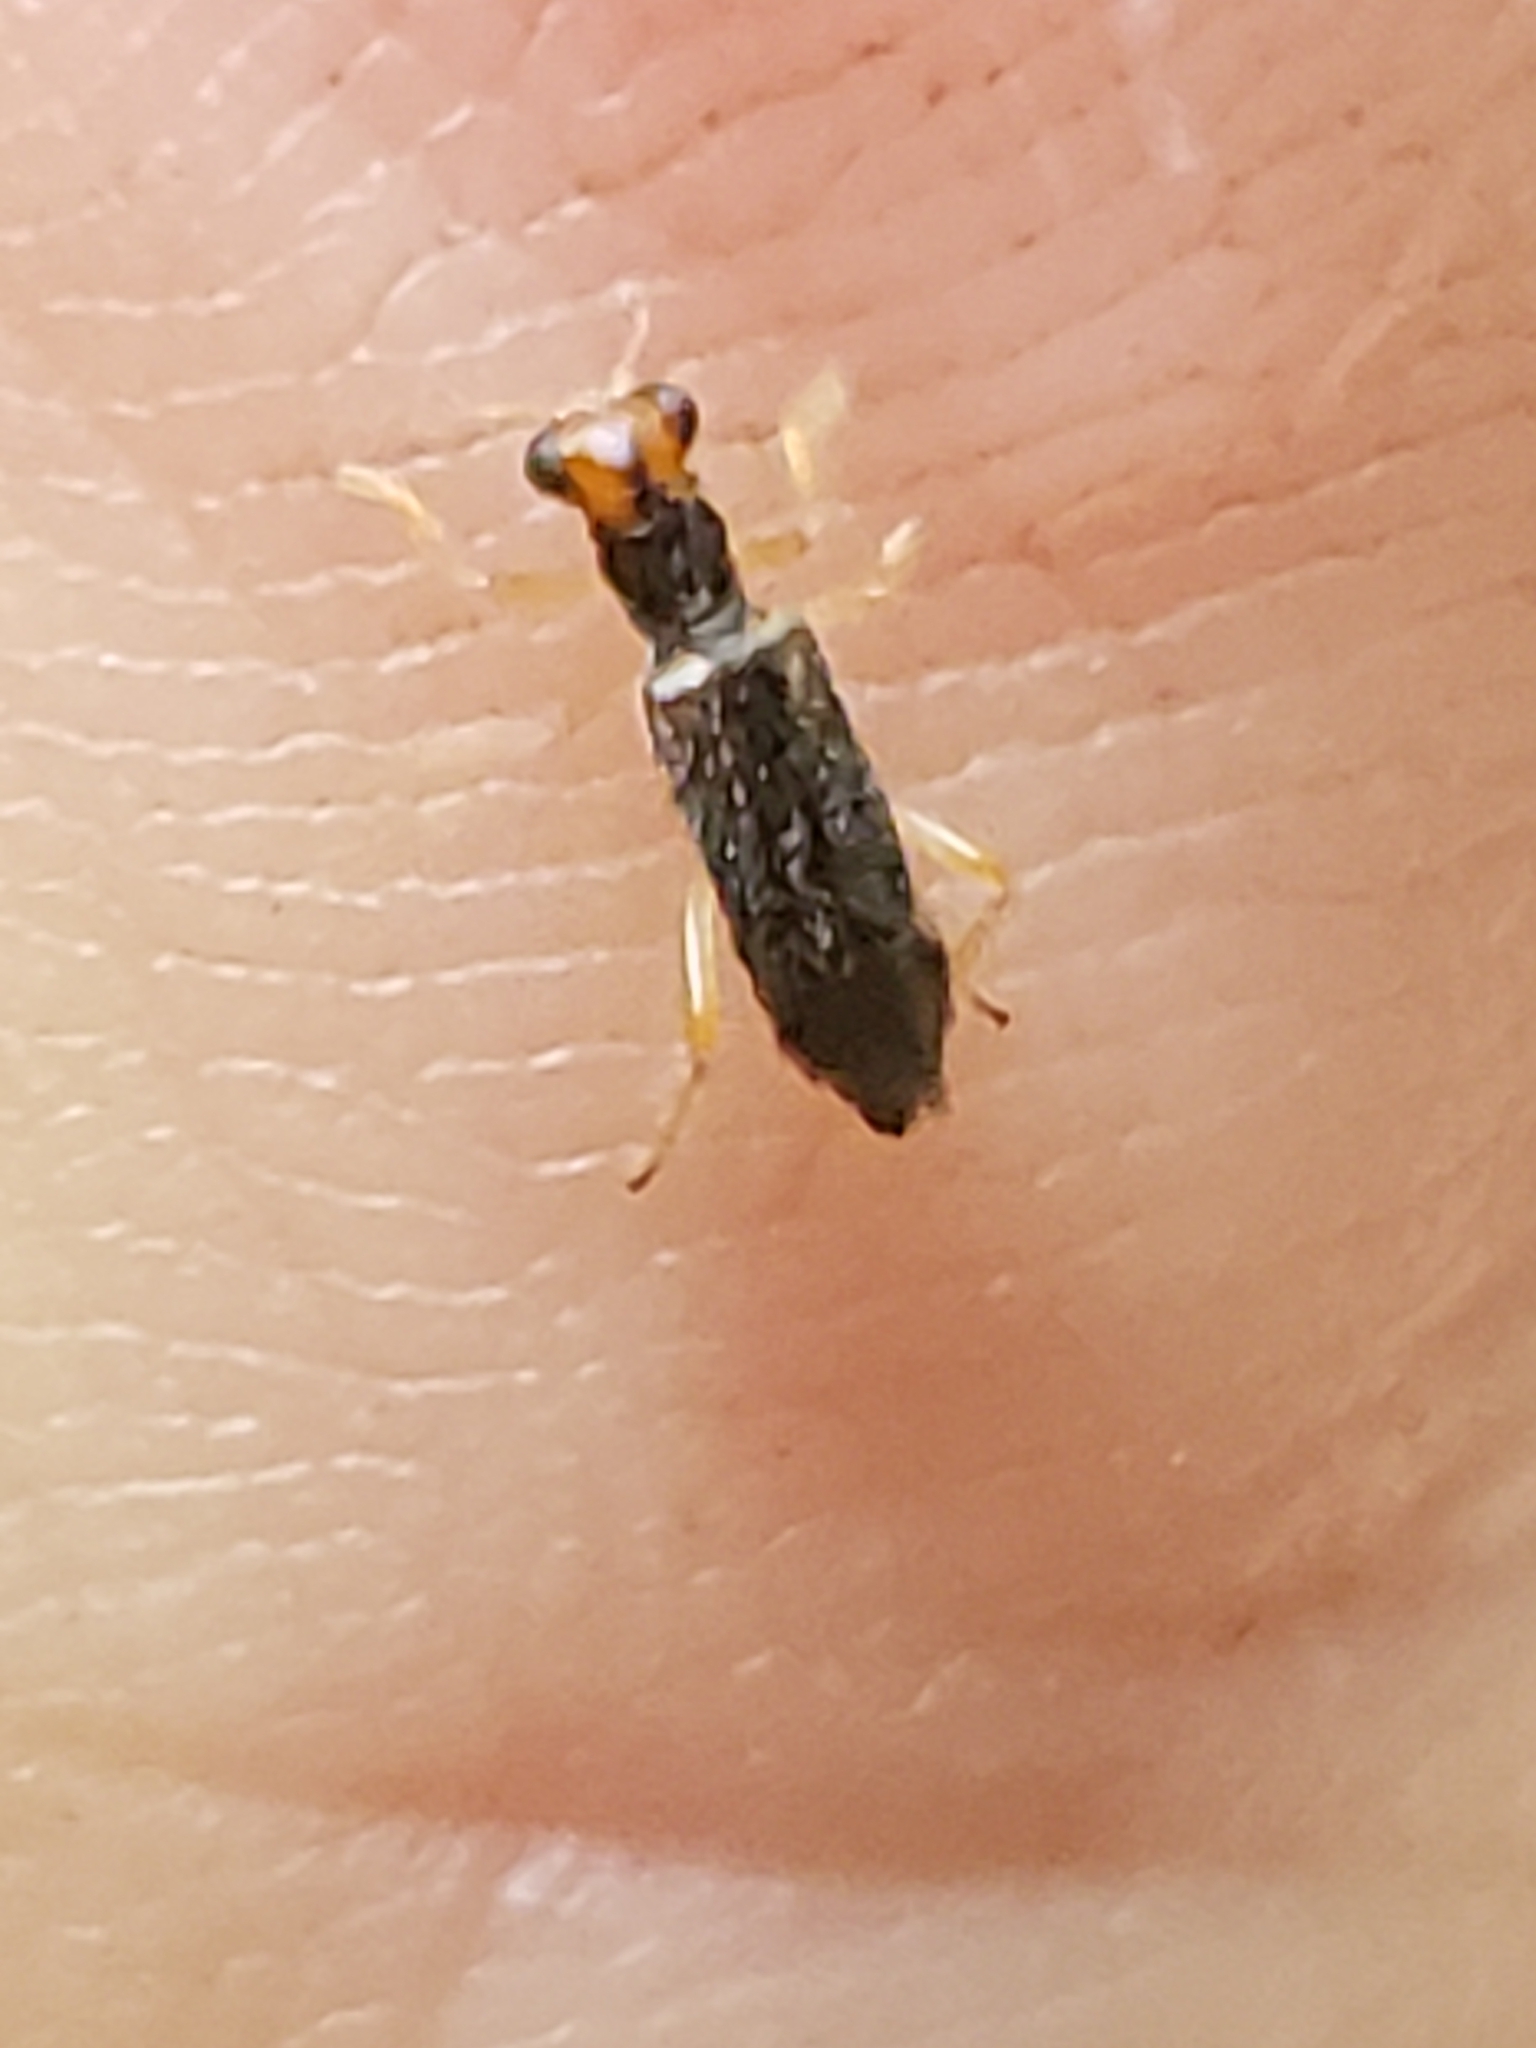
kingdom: Animalia
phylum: Arthropoda
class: Insecta
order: Coleoptera
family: Cleridae
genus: Phyllobaenus
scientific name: Phyllobaenus verticalis
